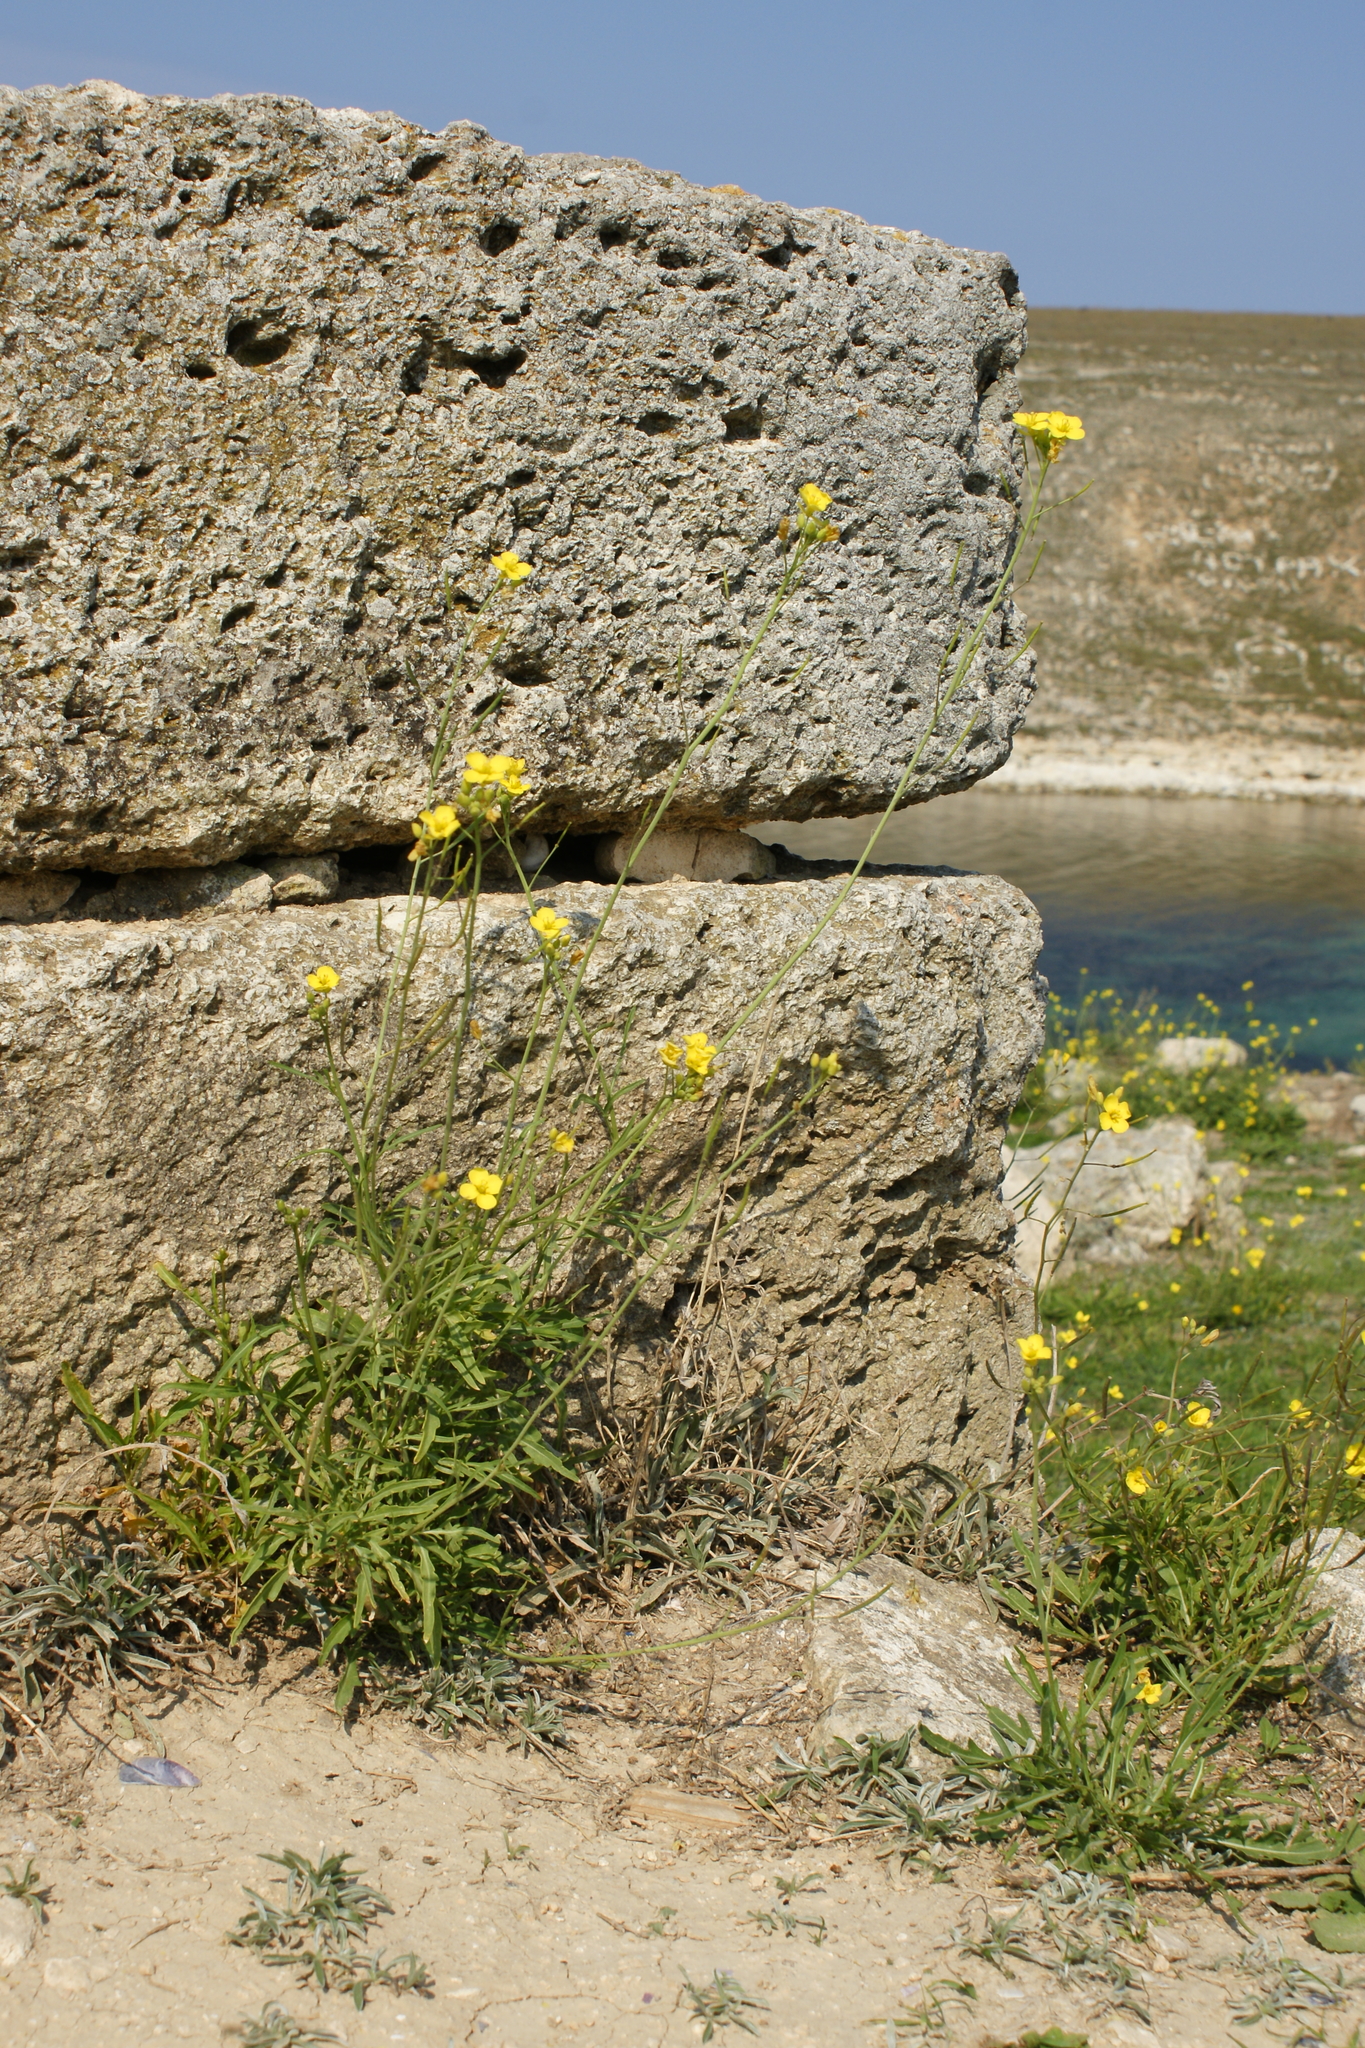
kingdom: Plantae
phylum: Tracheophyta
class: Magnoliopsida
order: Brassicales
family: Brassicaceae
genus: Diplotaxis
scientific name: Diplotaxis tenuifolia
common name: Perennial wall-rocket
